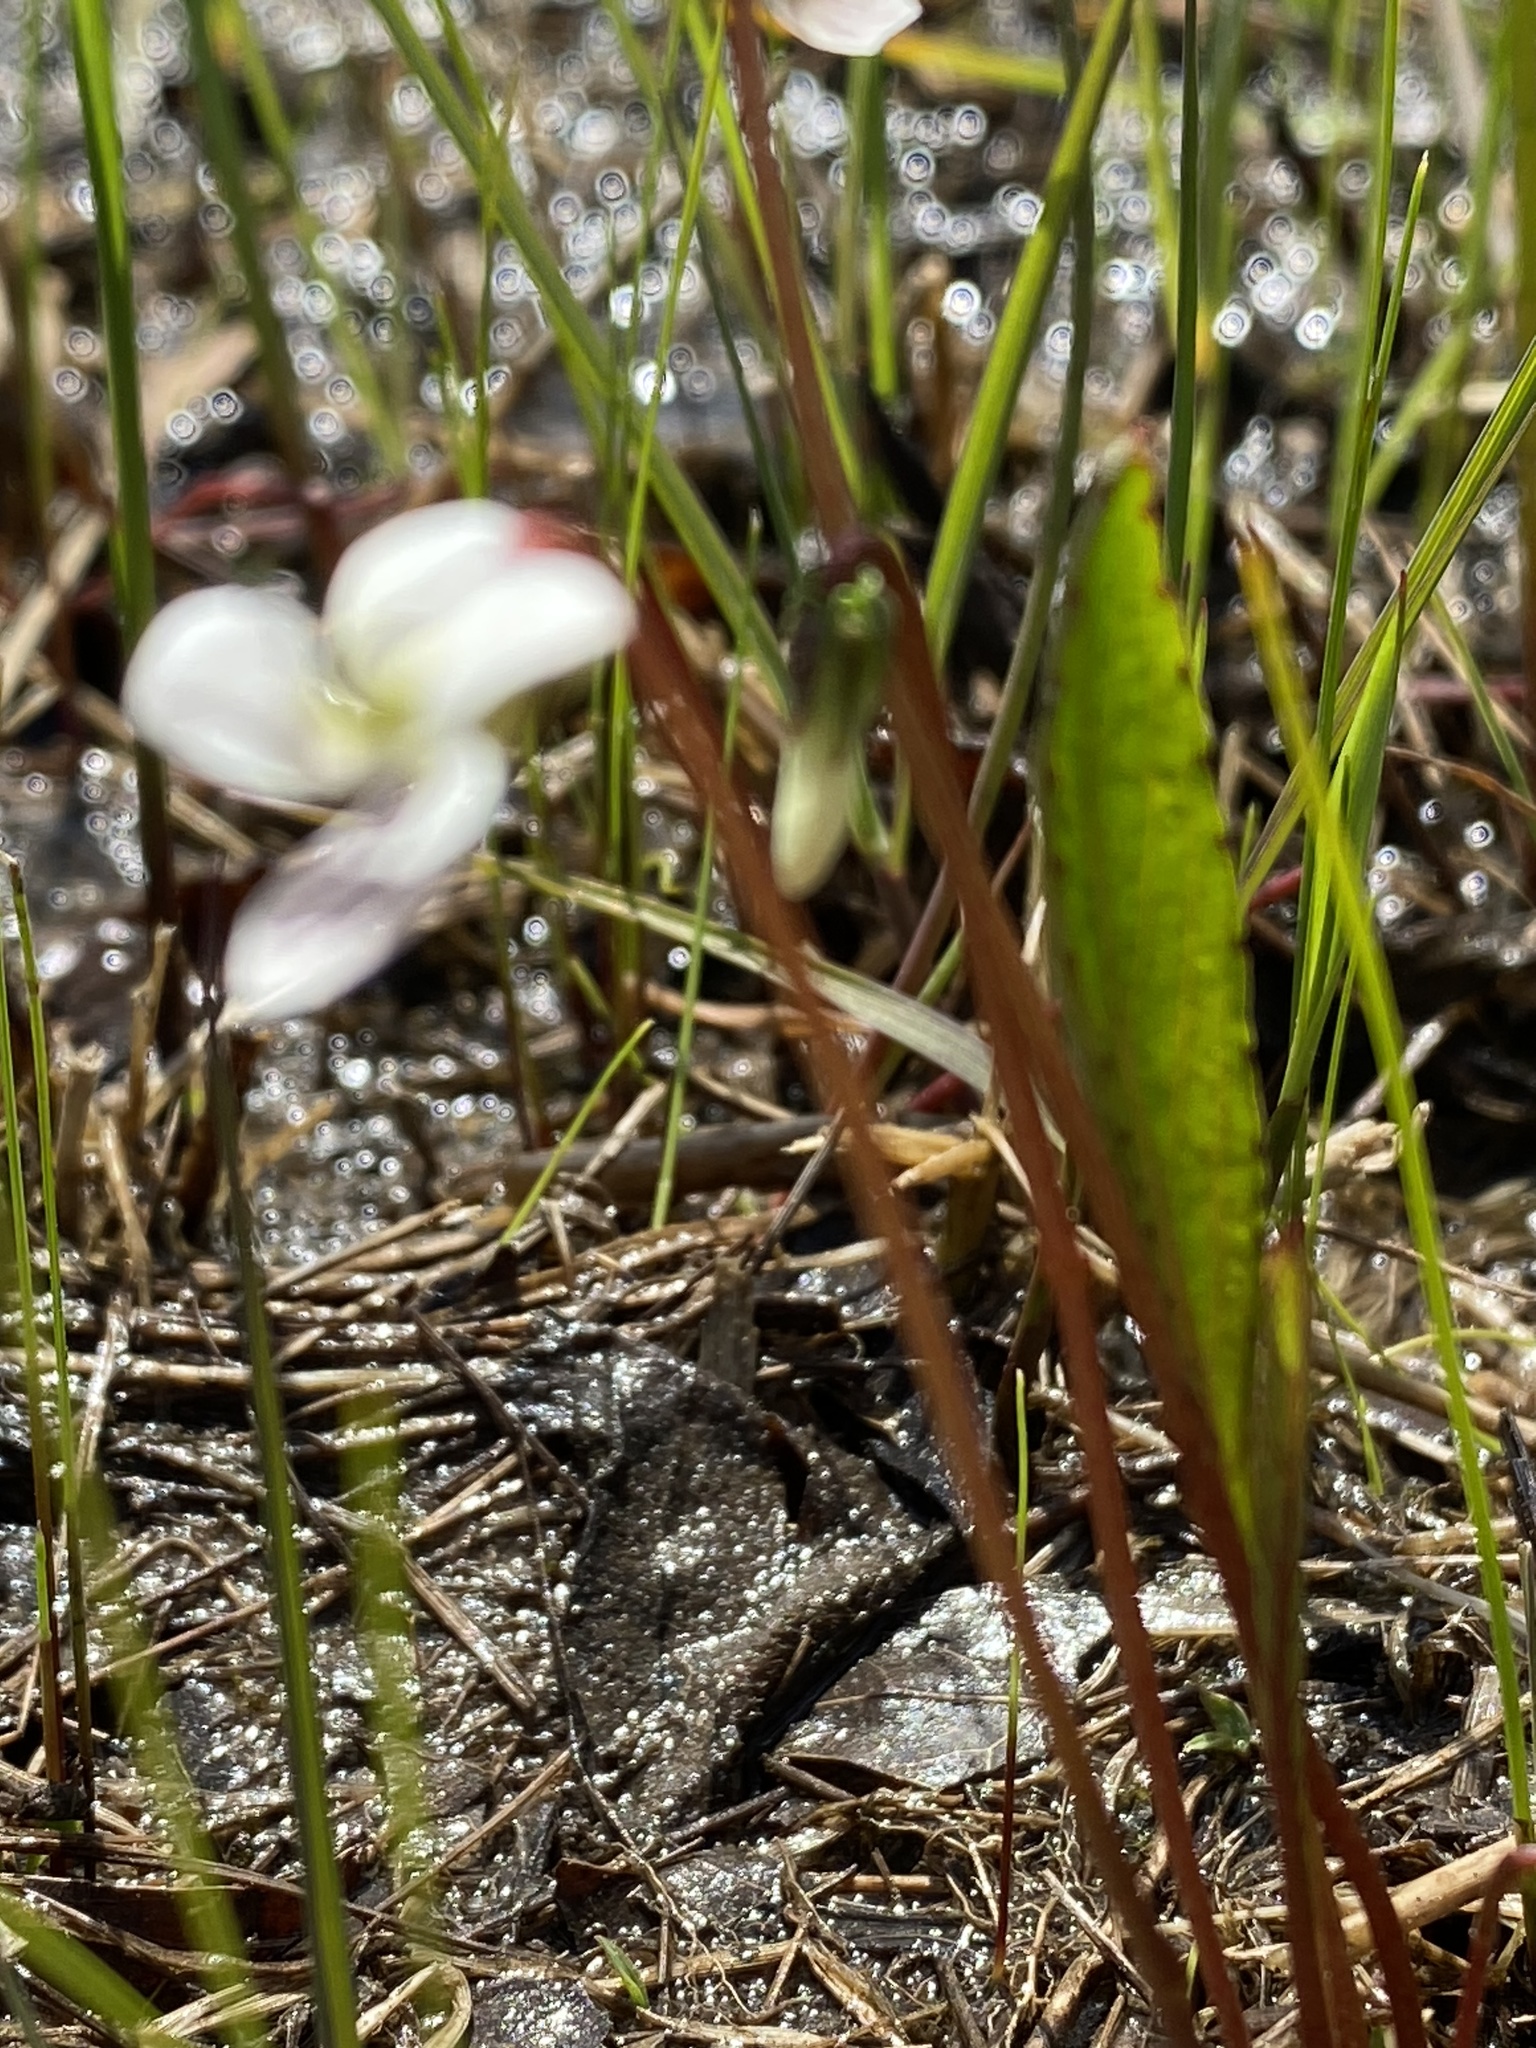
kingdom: Plantae
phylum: Tracheophyta
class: Magnoliopsida
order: Malpighiales
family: Violaceae
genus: Viola
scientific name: Viola lanceolata
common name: Bog white violet
